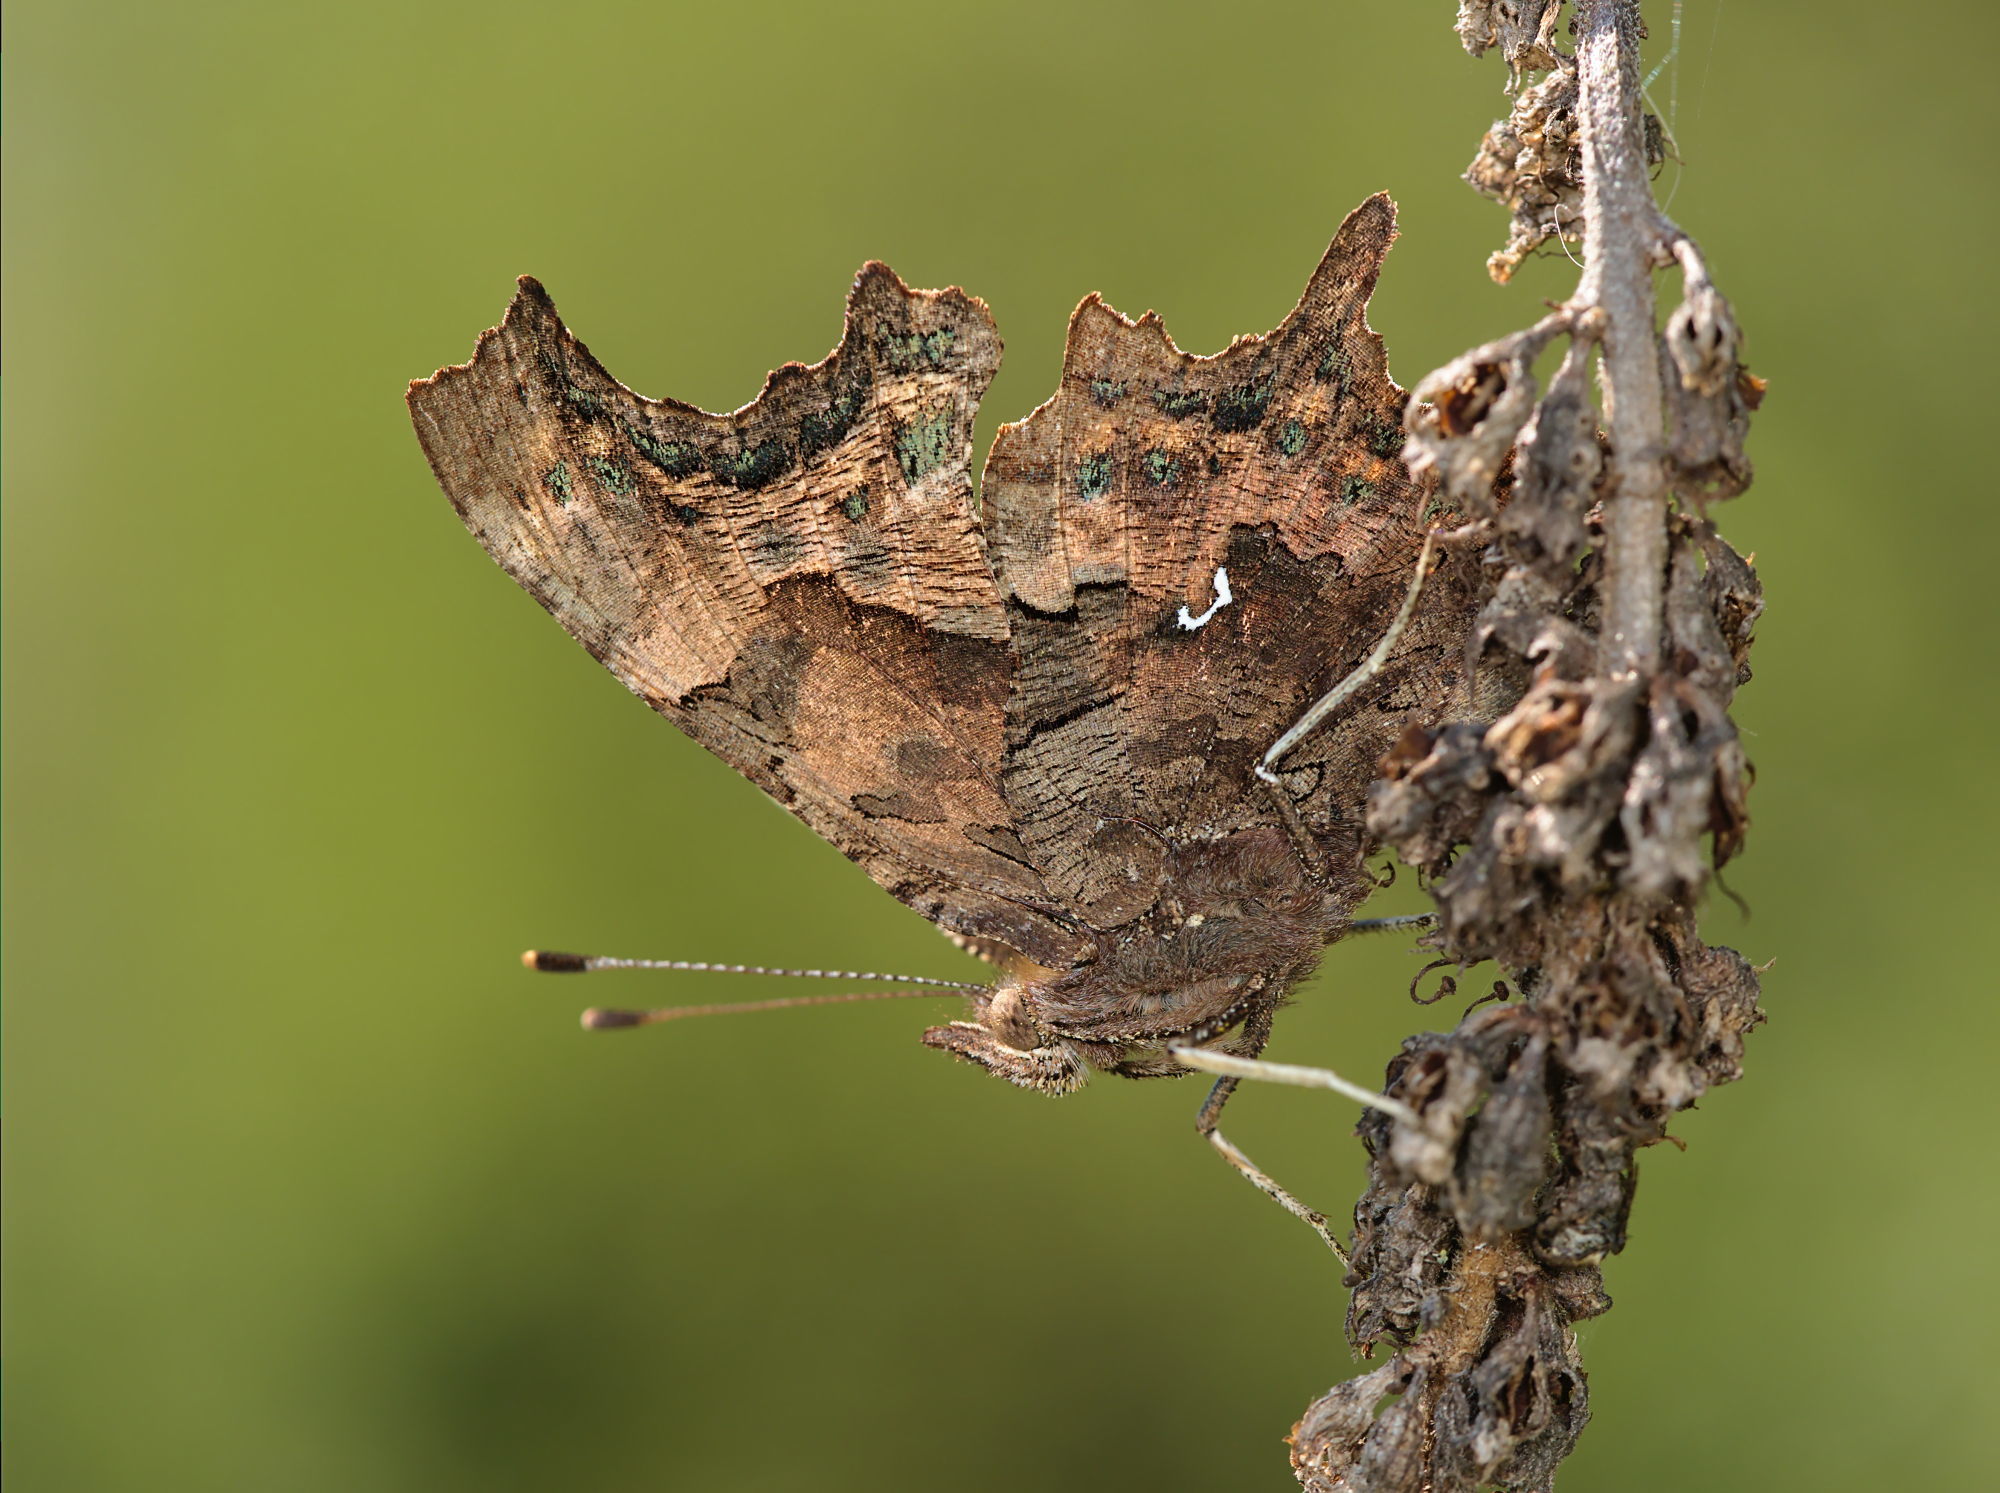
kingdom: Animalia
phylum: Arthropoda
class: Insecta
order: Lepidoptera
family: Nymphalidae
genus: Polygonia
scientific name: Polygonia c-album
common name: Comma
